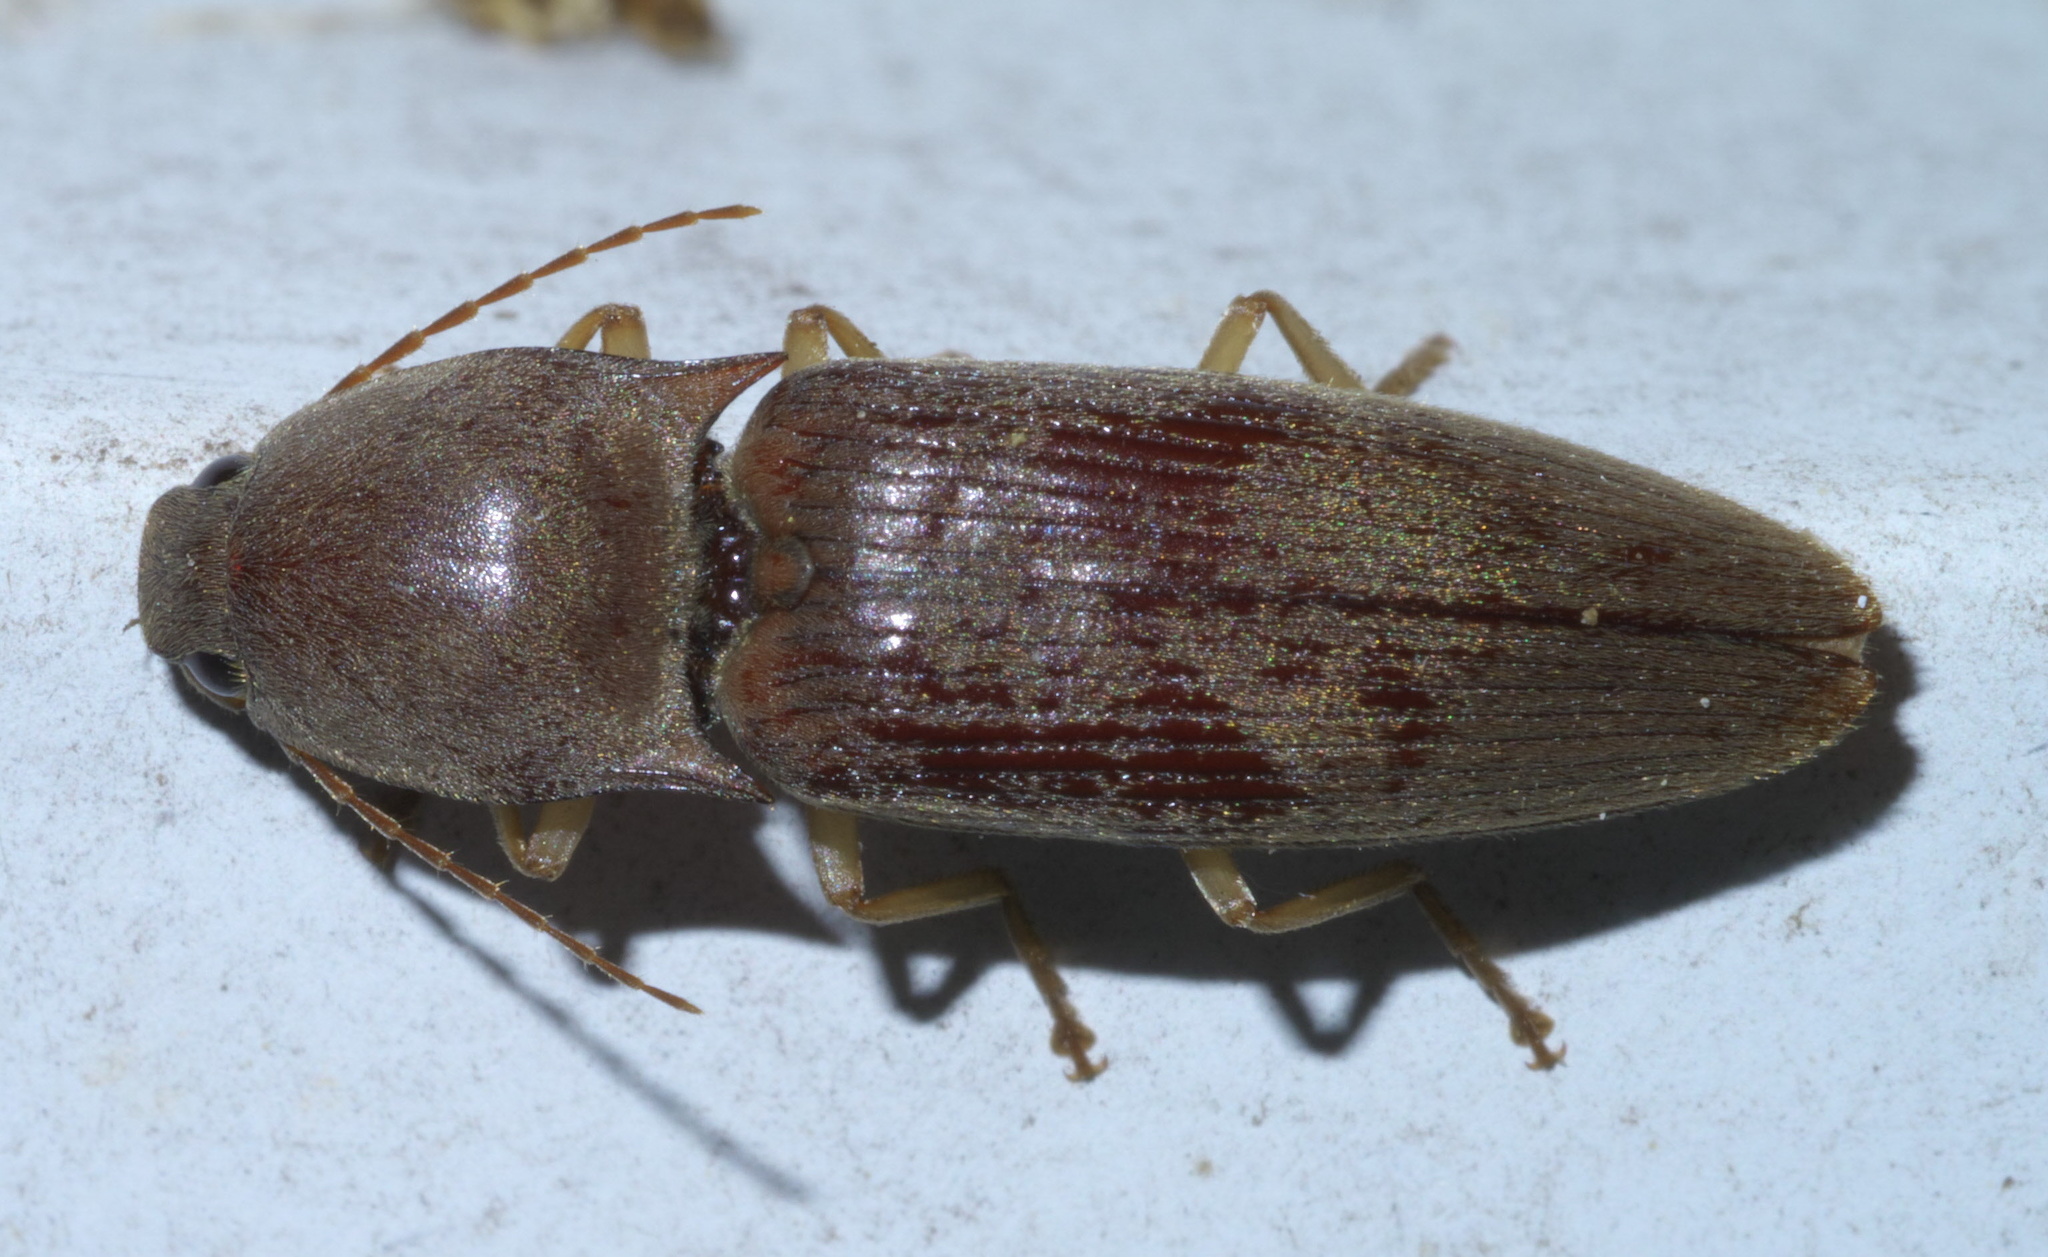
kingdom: Animalia
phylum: Arthropoda
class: Insecta
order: Coleoptera
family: Elateridae
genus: Monocrepidius
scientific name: Monocrepidius lividus
